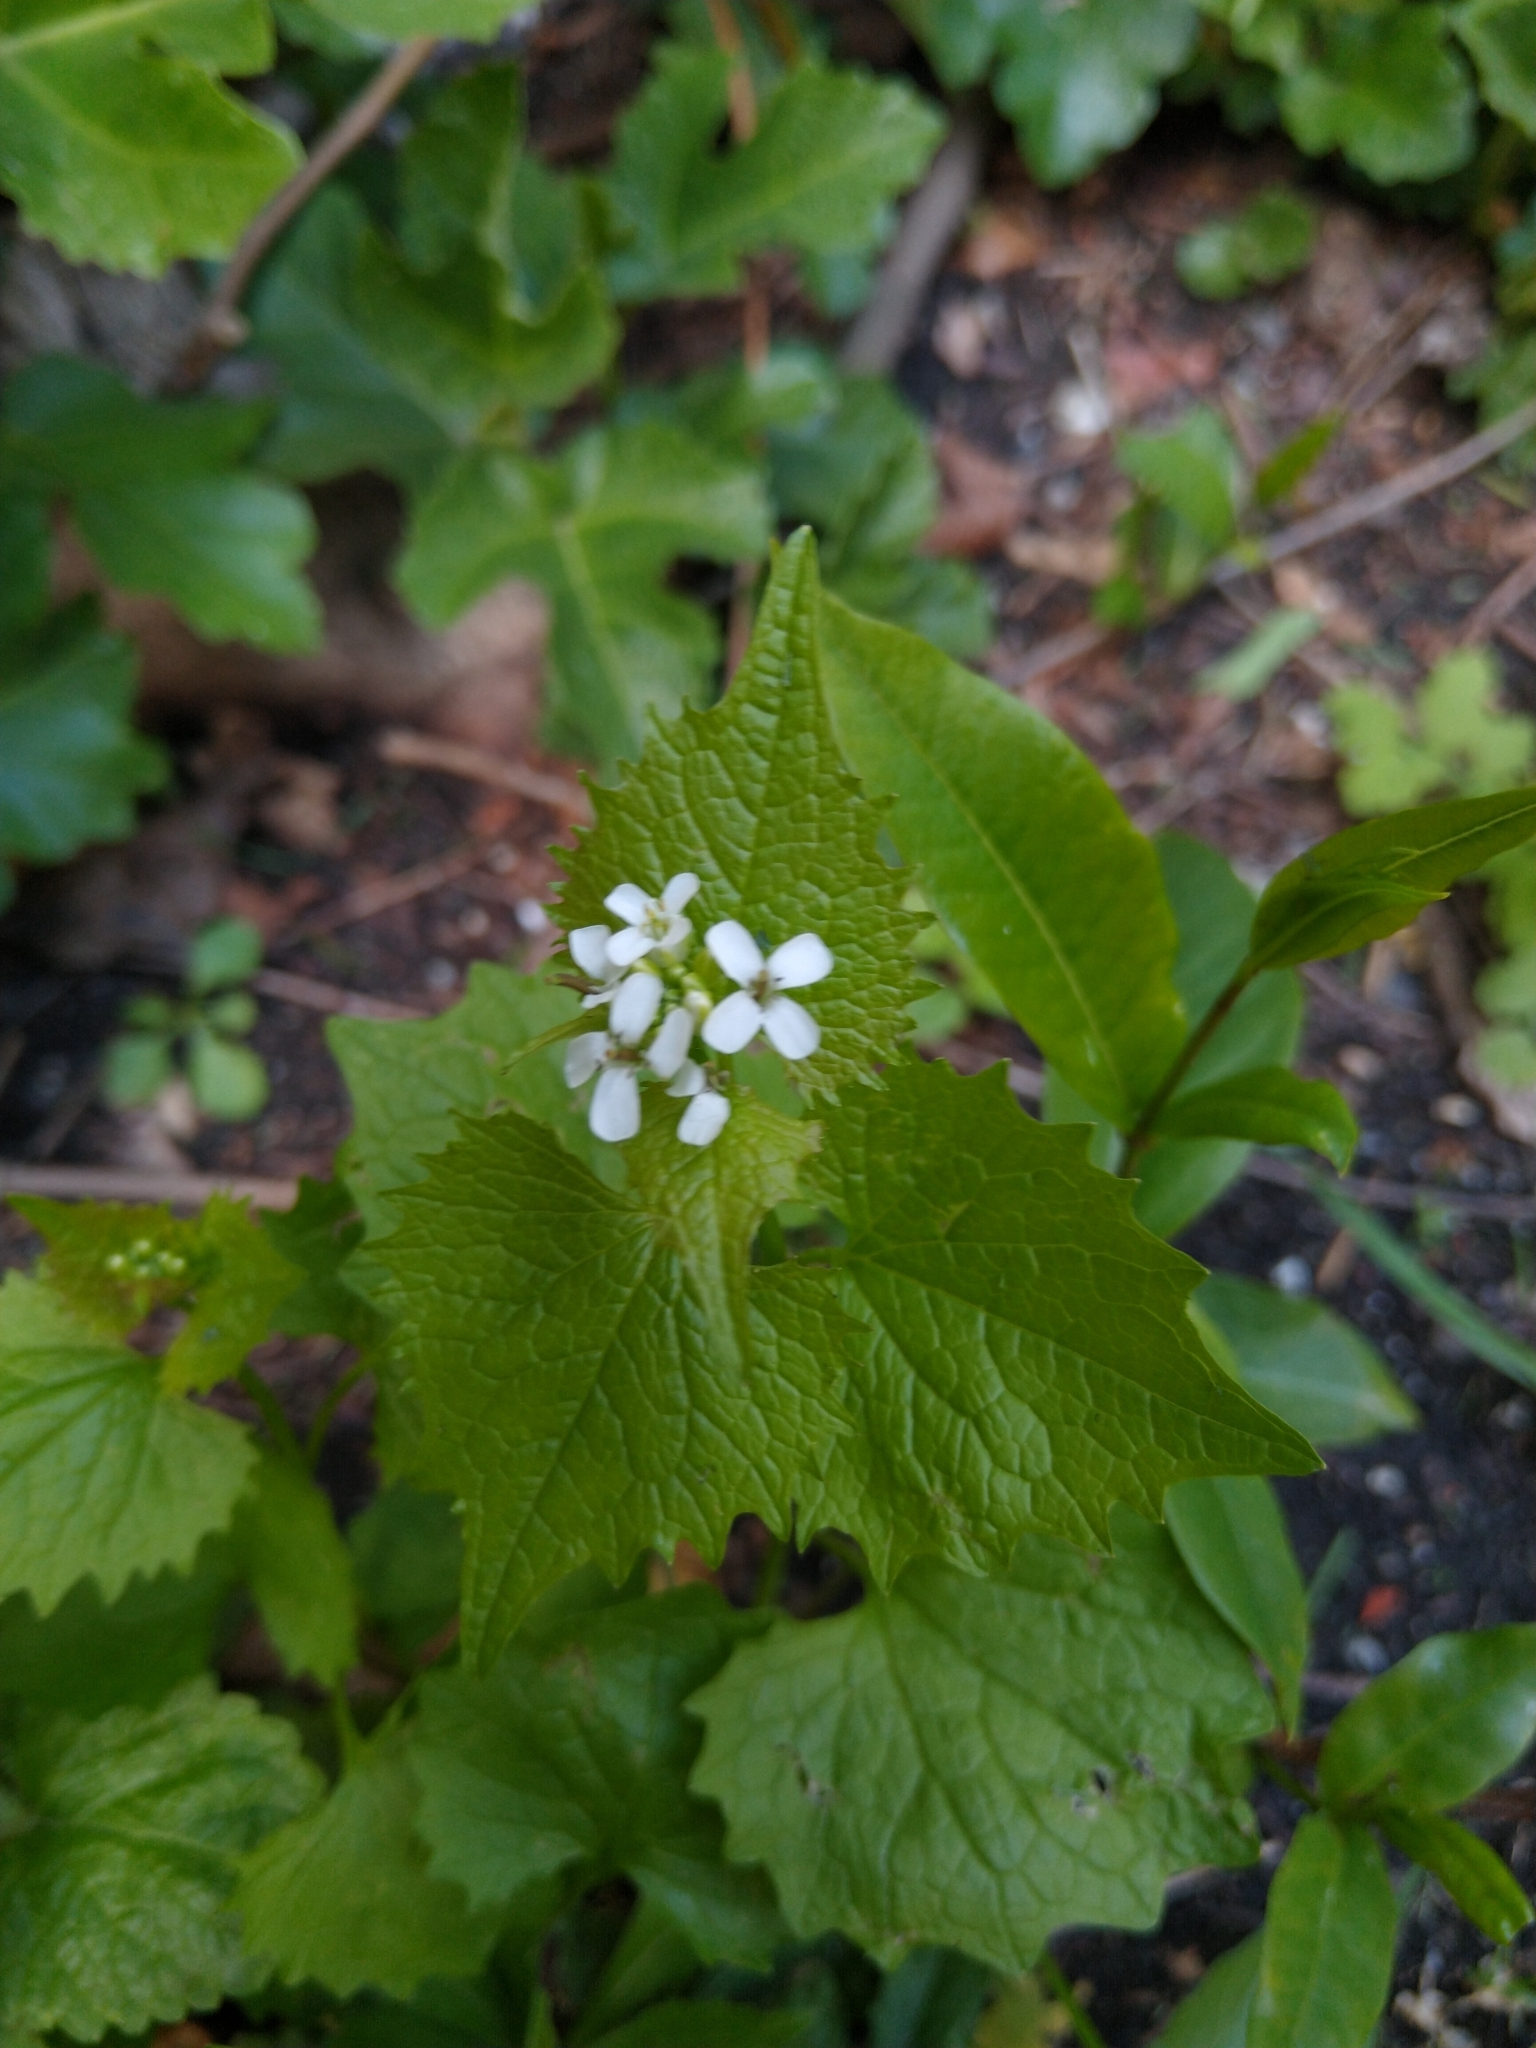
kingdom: Plantae
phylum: Tracheophyta
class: Magnoliopsida
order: Brassicales
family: Brassicaceae
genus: Alliaria
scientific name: Alliaria petiolata
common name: Garlic mustard
